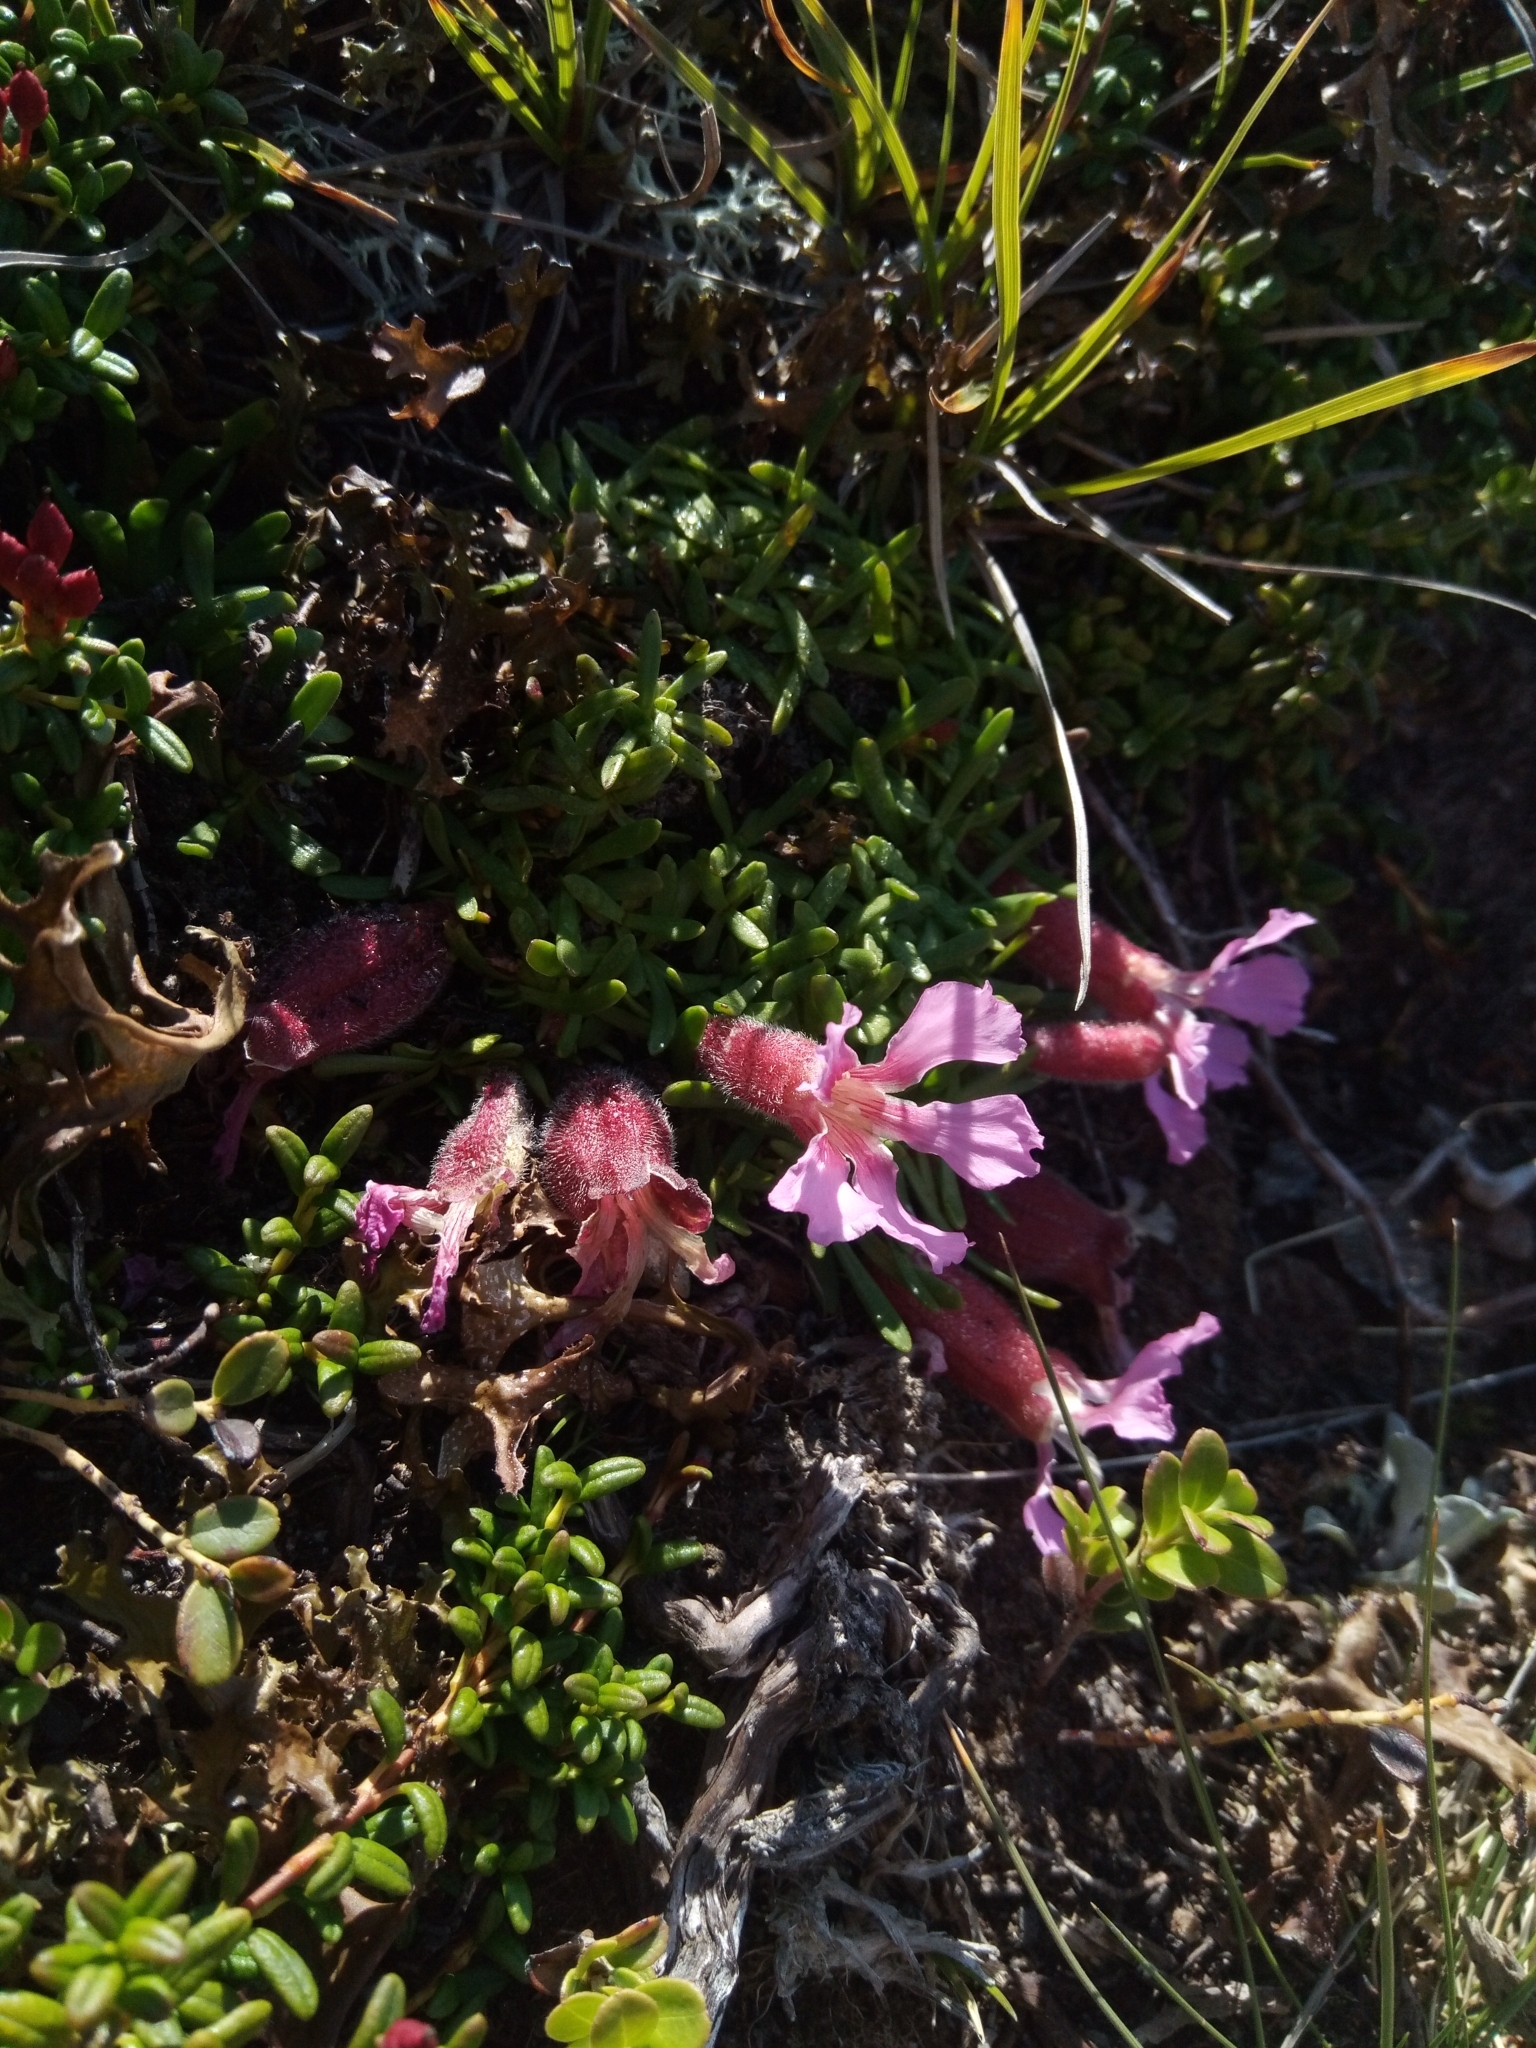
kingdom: Plantae
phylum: Tracheophyta
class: Magnoliopsida
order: Caryophyllales
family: Caryophyllaceae
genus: Saponaria
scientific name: Saponaria pumila
